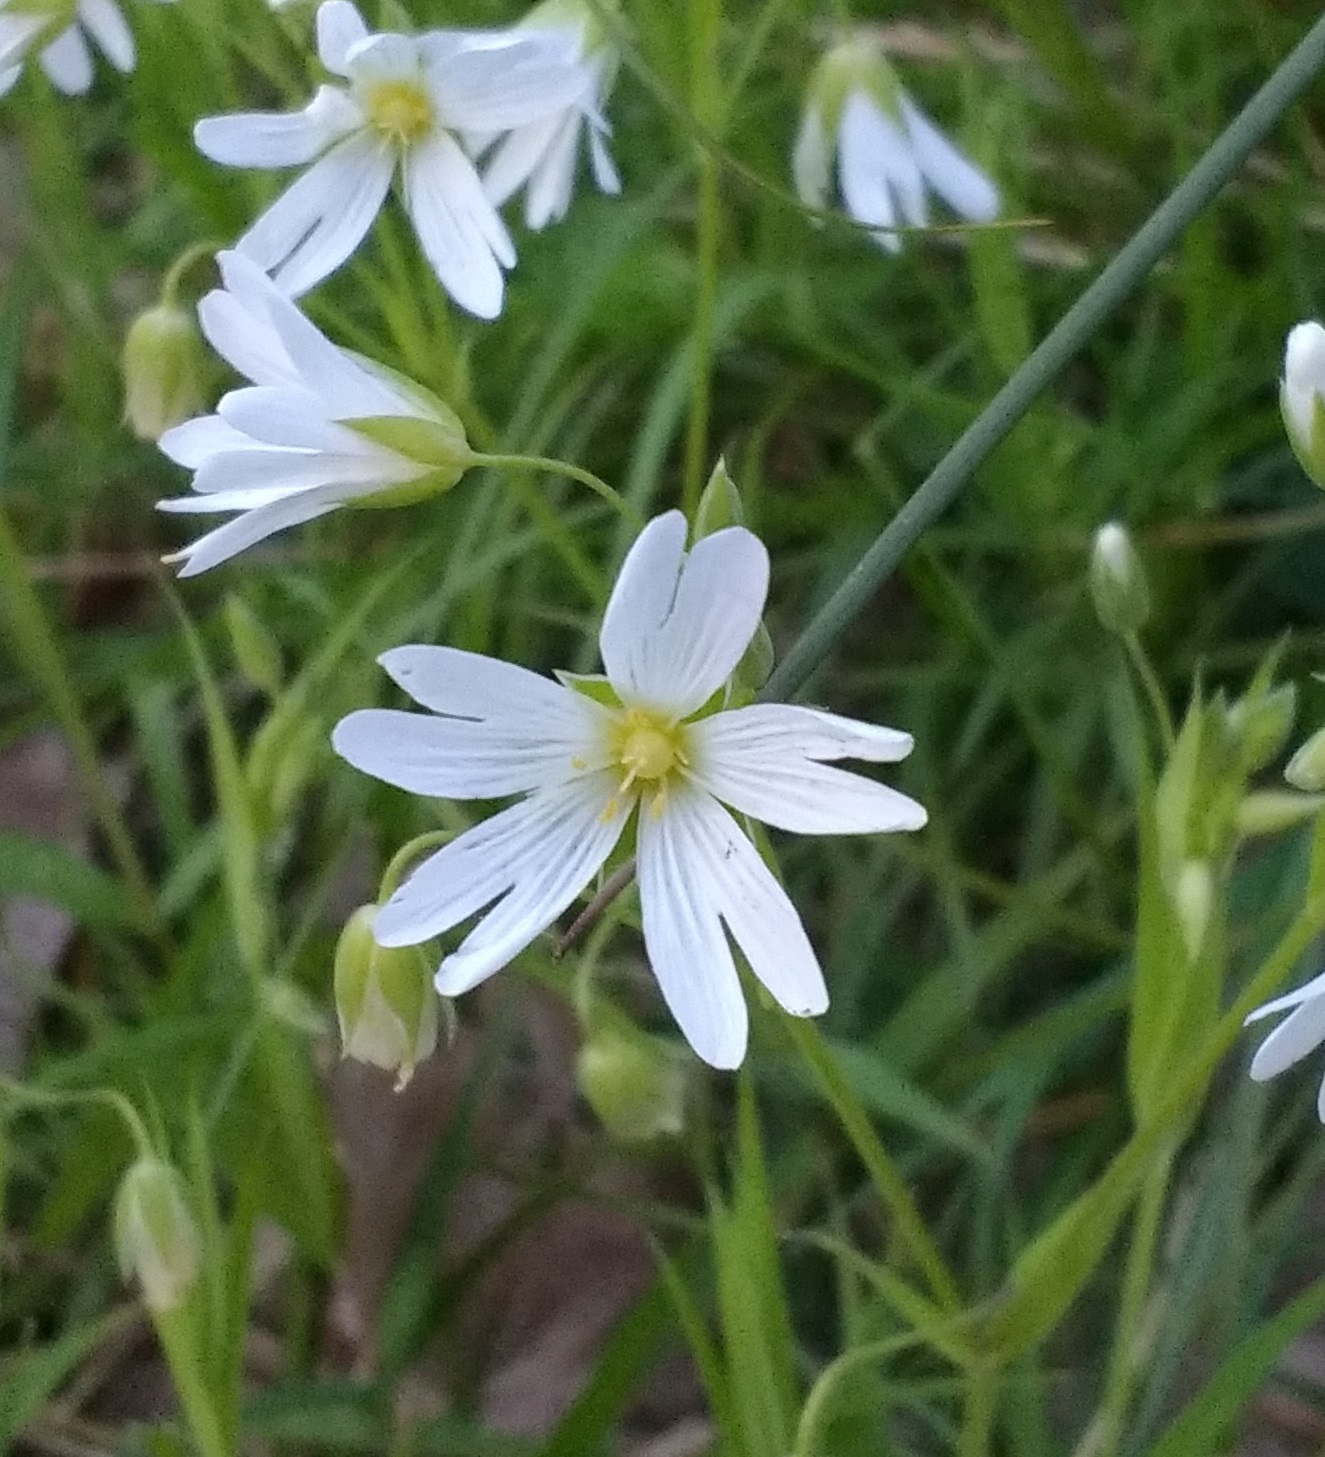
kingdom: Plantae
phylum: Tracheophyta
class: Magnoliopsida
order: Caryophyllales
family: Caryophyllaceae
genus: Rabelera
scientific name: Rabelera holostea
